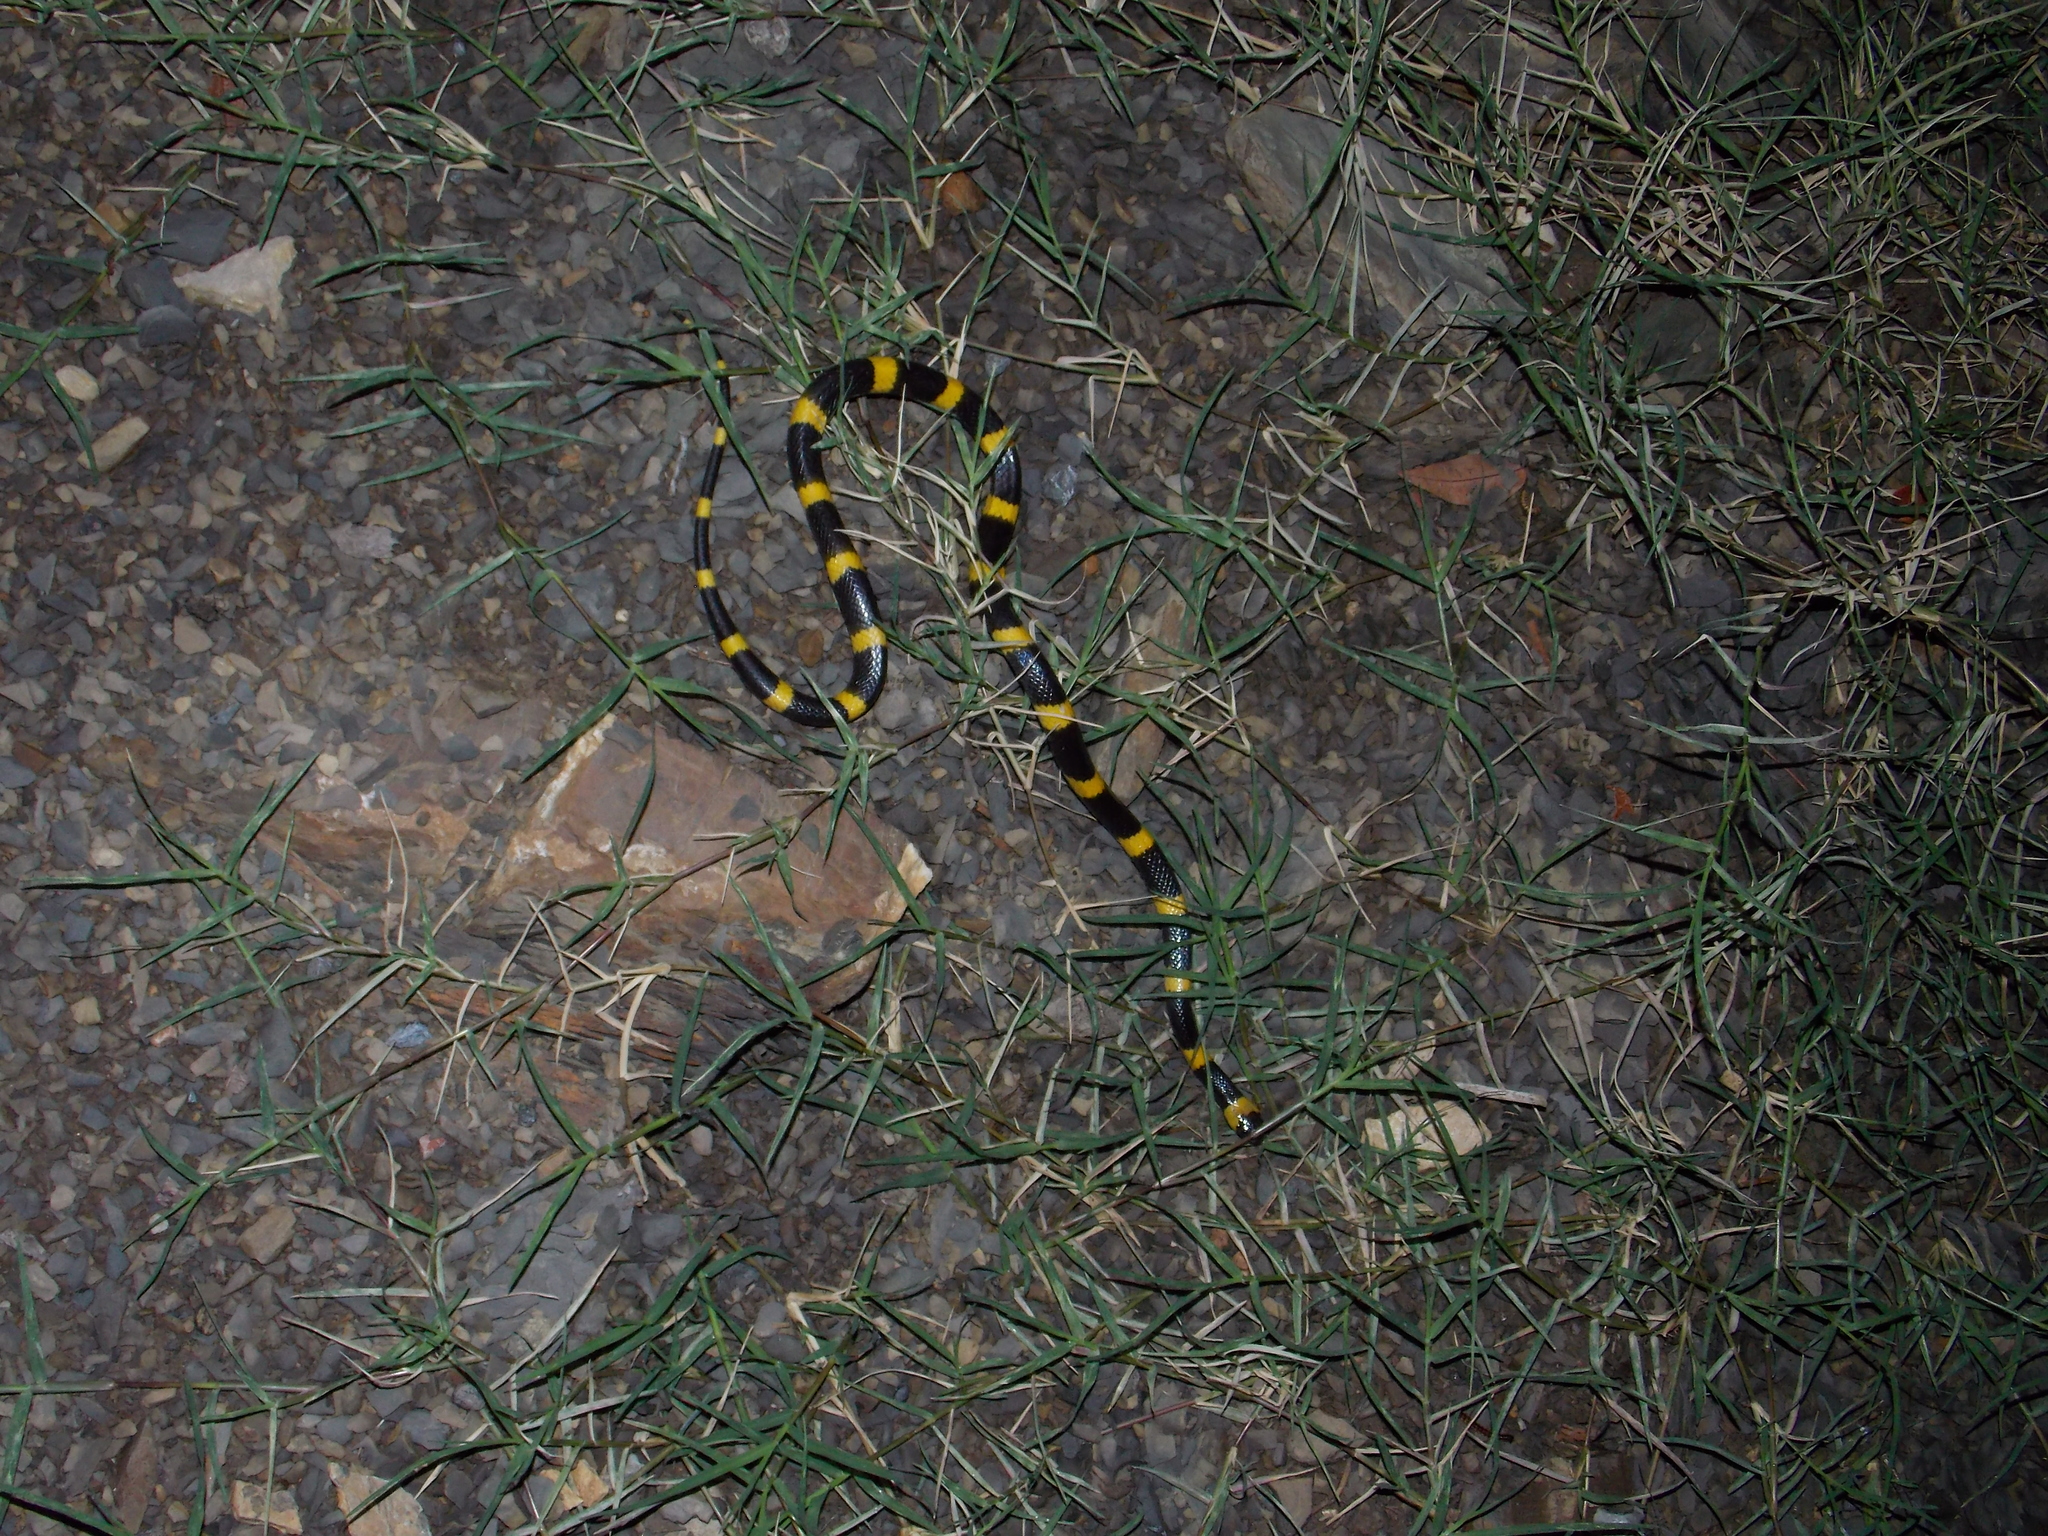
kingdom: Animalia
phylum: Chordata
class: Squamata
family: Colubridae
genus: Geophis
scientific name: Geophis
